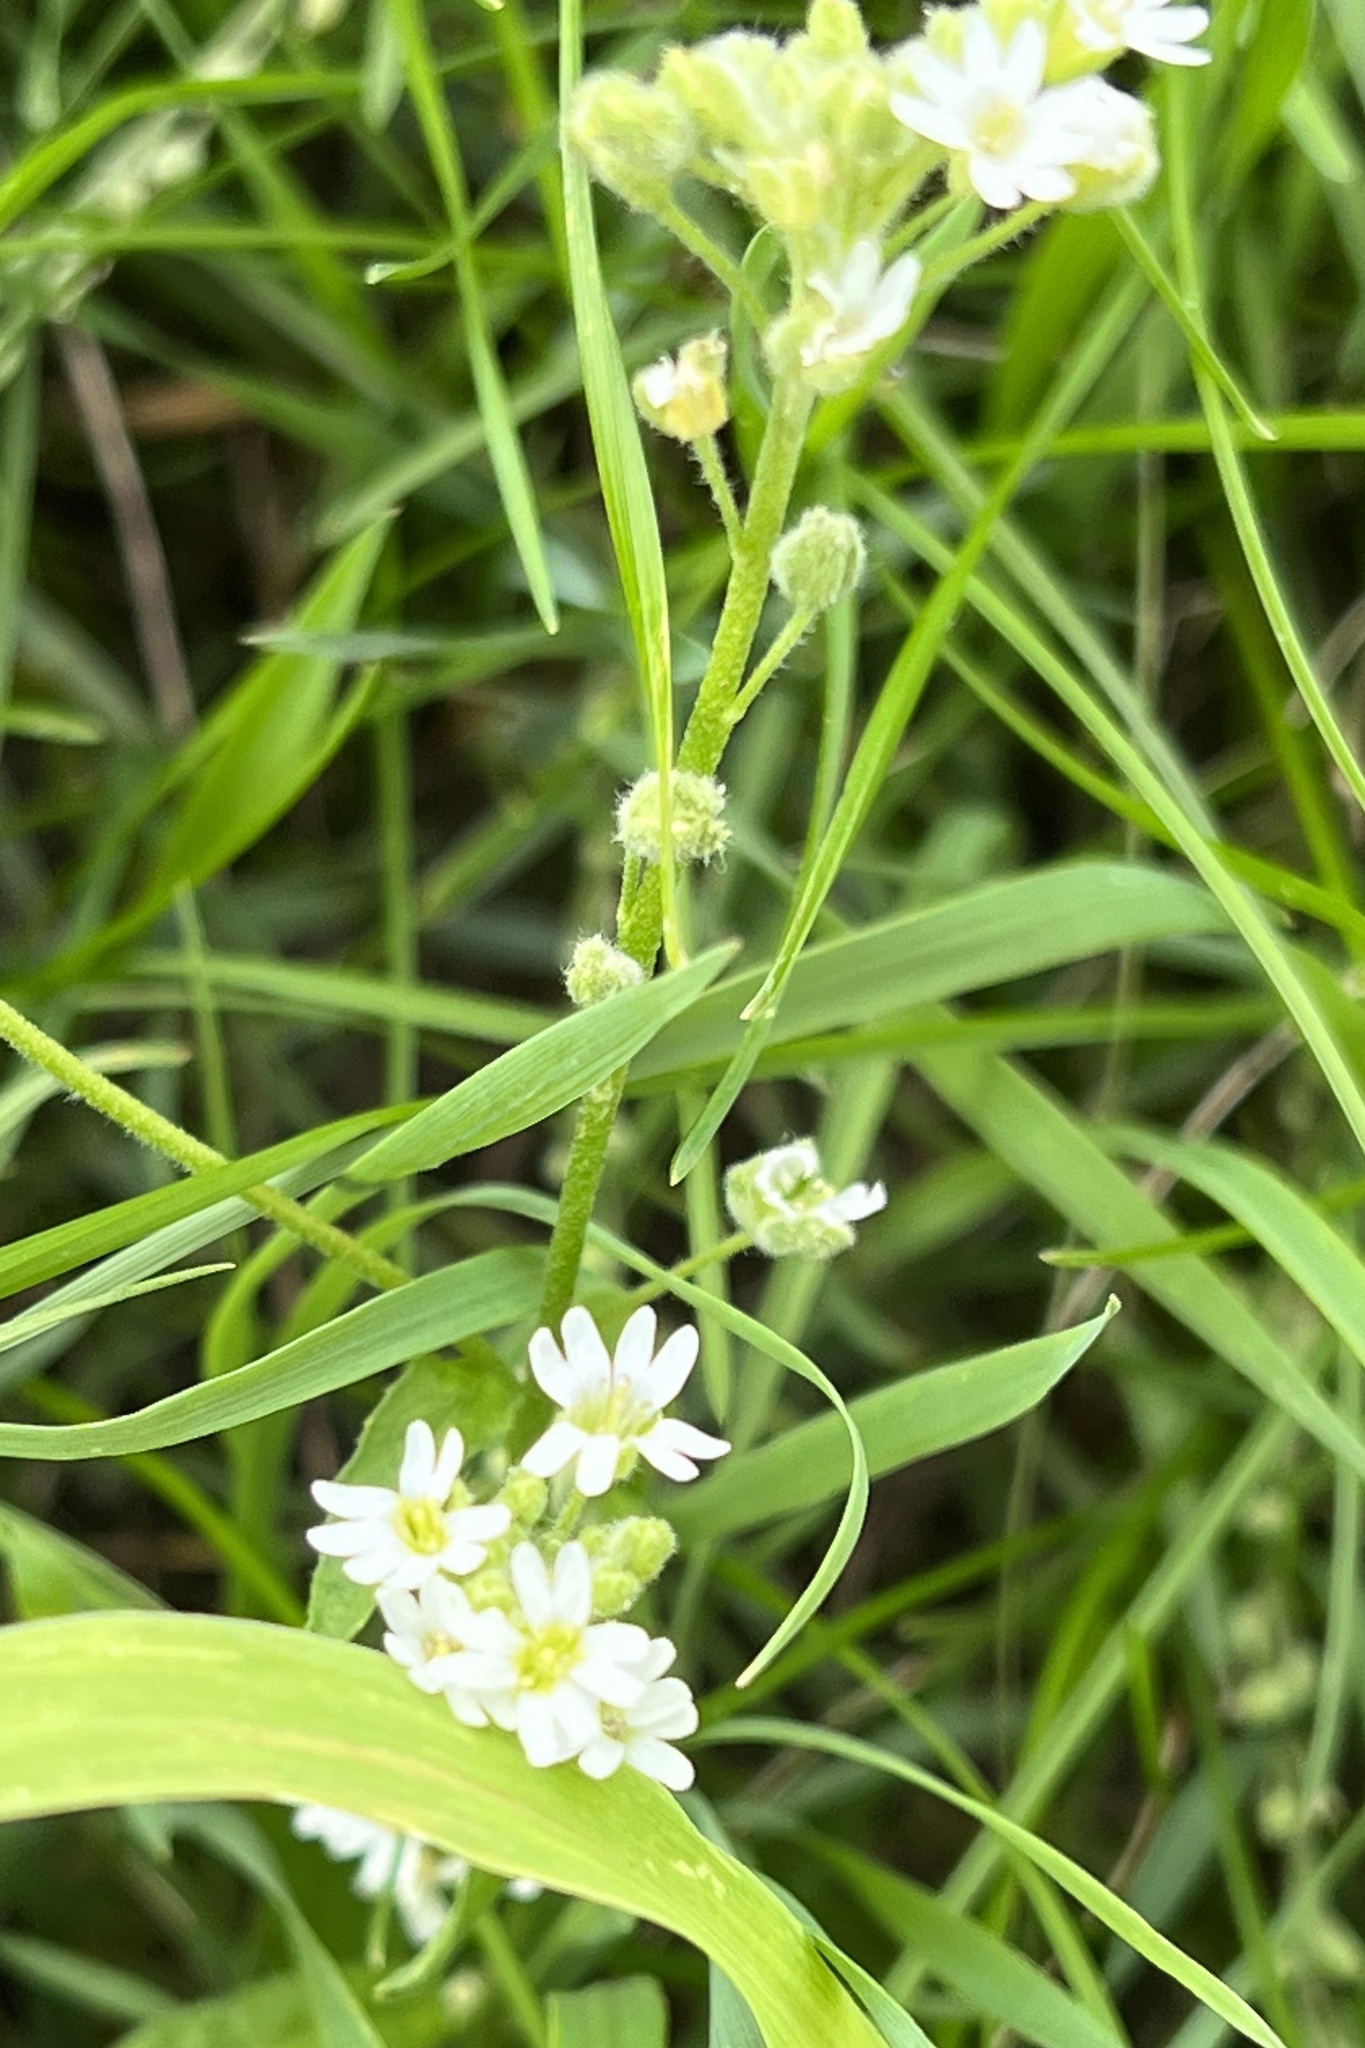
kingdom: Plantae
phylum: Tracheophyta
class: Magnoliopsida
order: Brassicales
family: Brassicaceae
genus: Berteroa
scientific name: Berteroa incana
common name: Hoary alison
